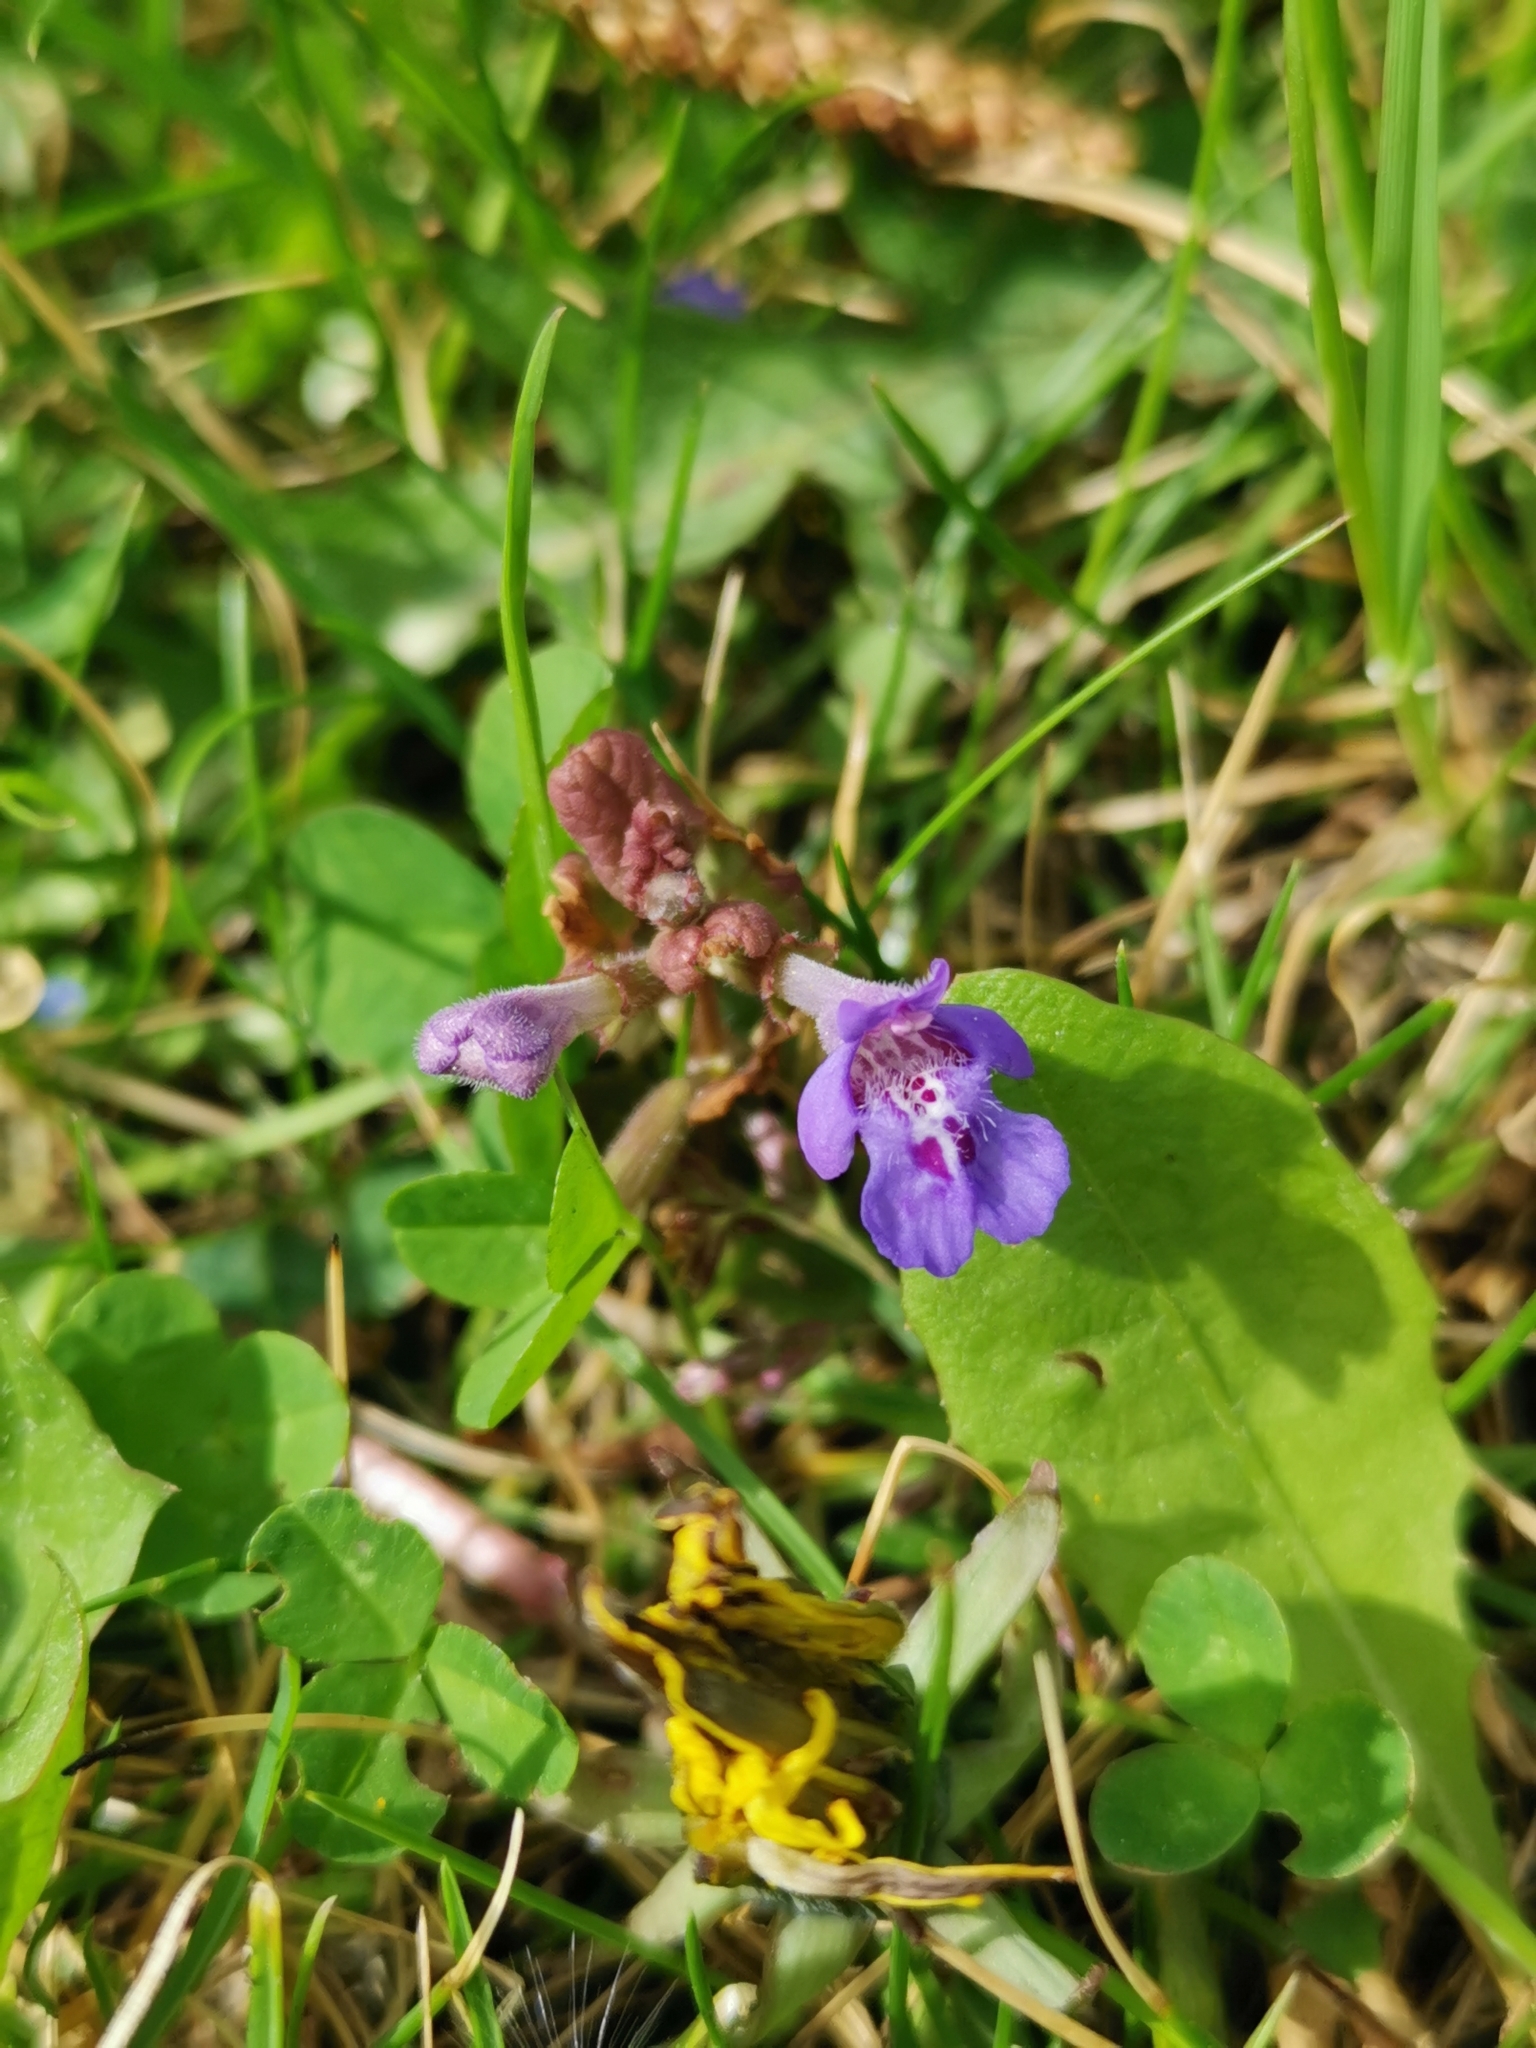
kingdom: Plantae
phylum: Tracheophyta
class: Magnoliopsida
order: Lamiales
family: Lamiaceae
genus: Glechoma
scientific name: Glechoma hederacea
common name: Ground ivy
